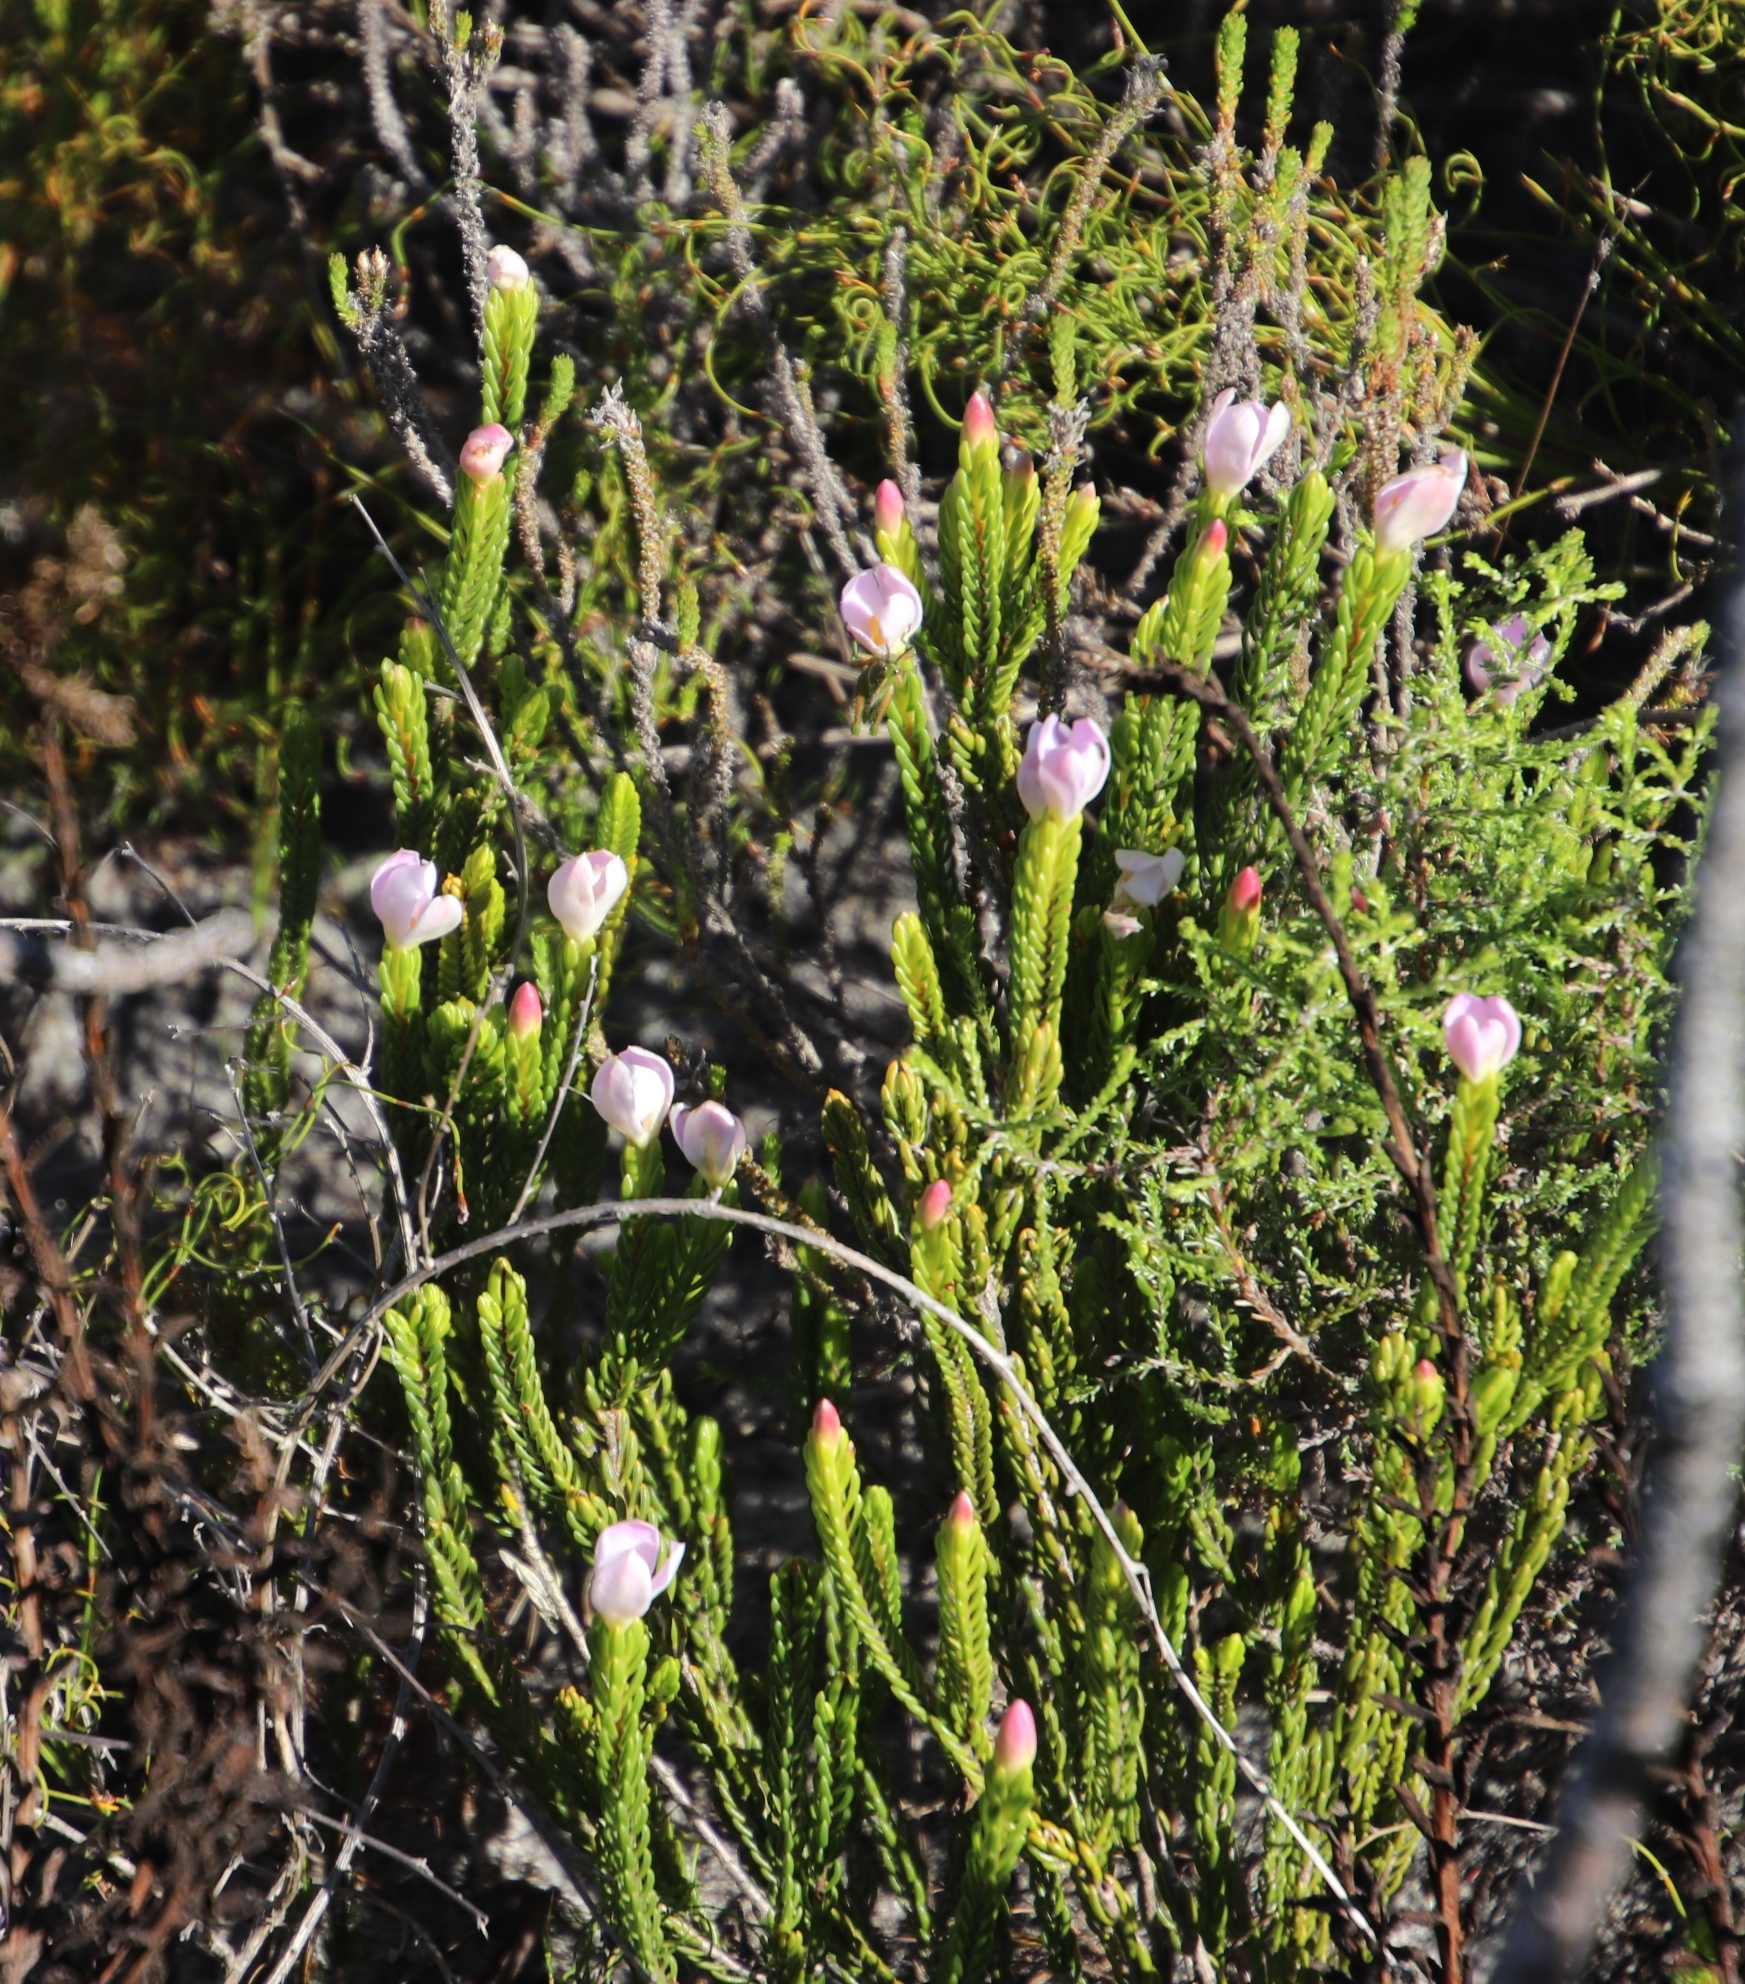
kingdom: Plantae
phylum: Tracheophyta
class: Magnoliopsida
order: Malvales
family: Thymelaeaceae
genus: Lachnaea
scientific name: Lachnaea grandiflora
